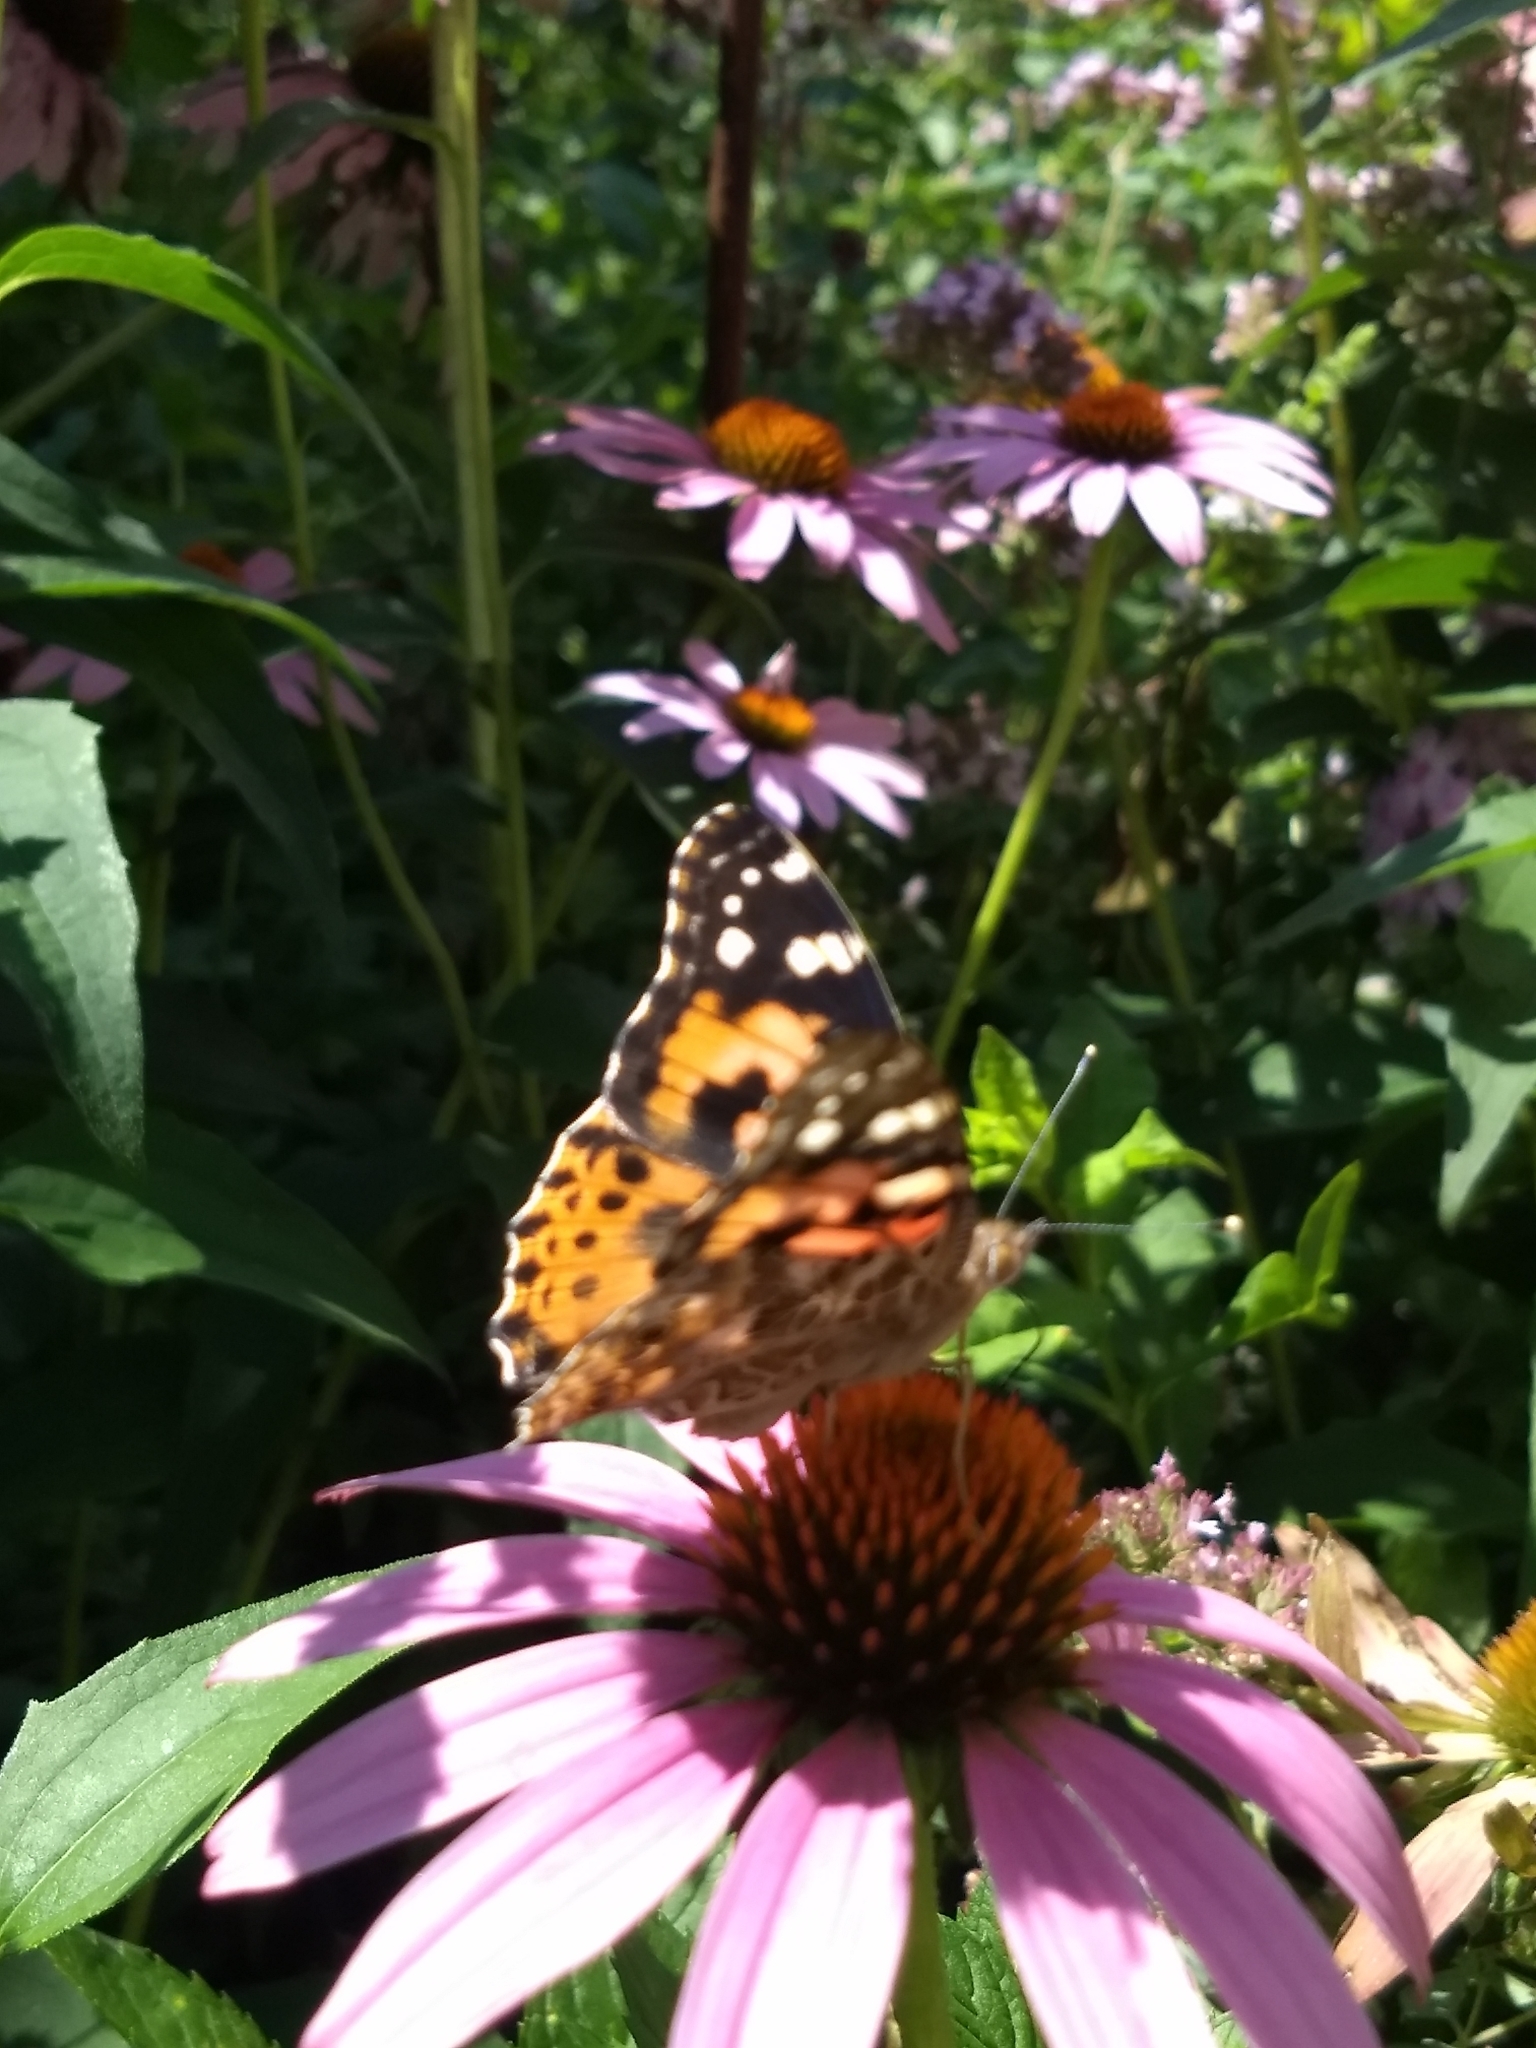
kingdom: Animalia
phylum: Arthropoda
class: Insecta
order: Lepidoptera
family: Nymphalidae
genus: Vanessa
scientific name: Vanessa cardui
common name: Painted lady
